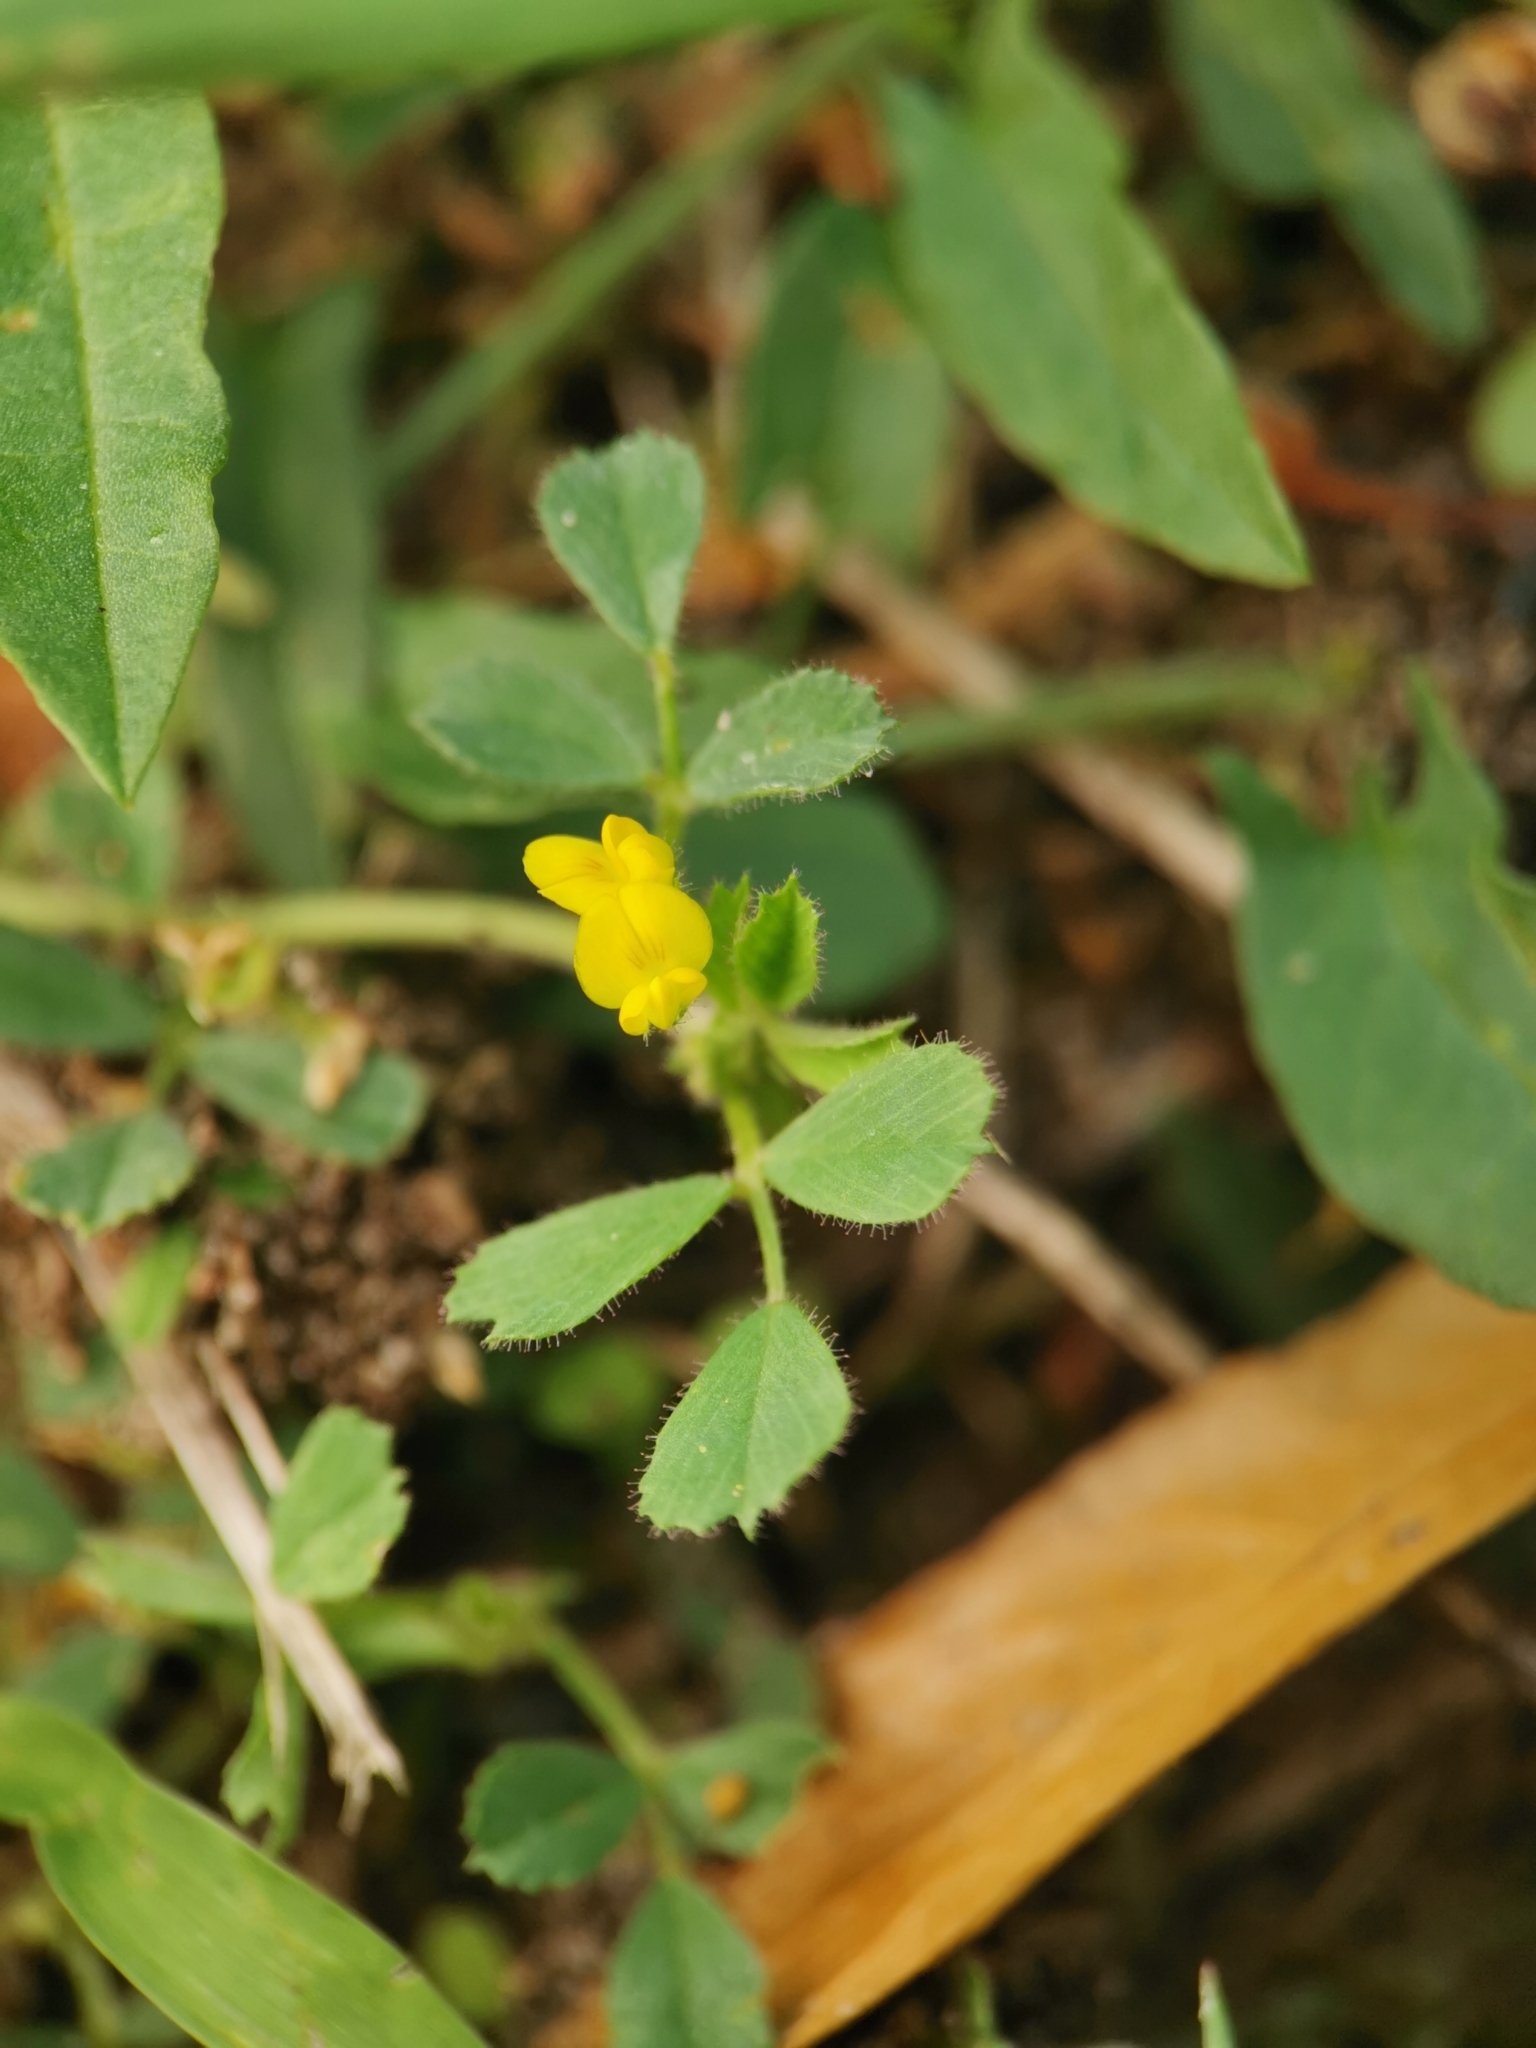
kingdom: Plantae
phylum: Tracheophyta
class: Magnoliopsida
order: Fabales
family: Fabaceae
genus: Medicago
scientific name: Medicago minima
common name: Little bur-clover
